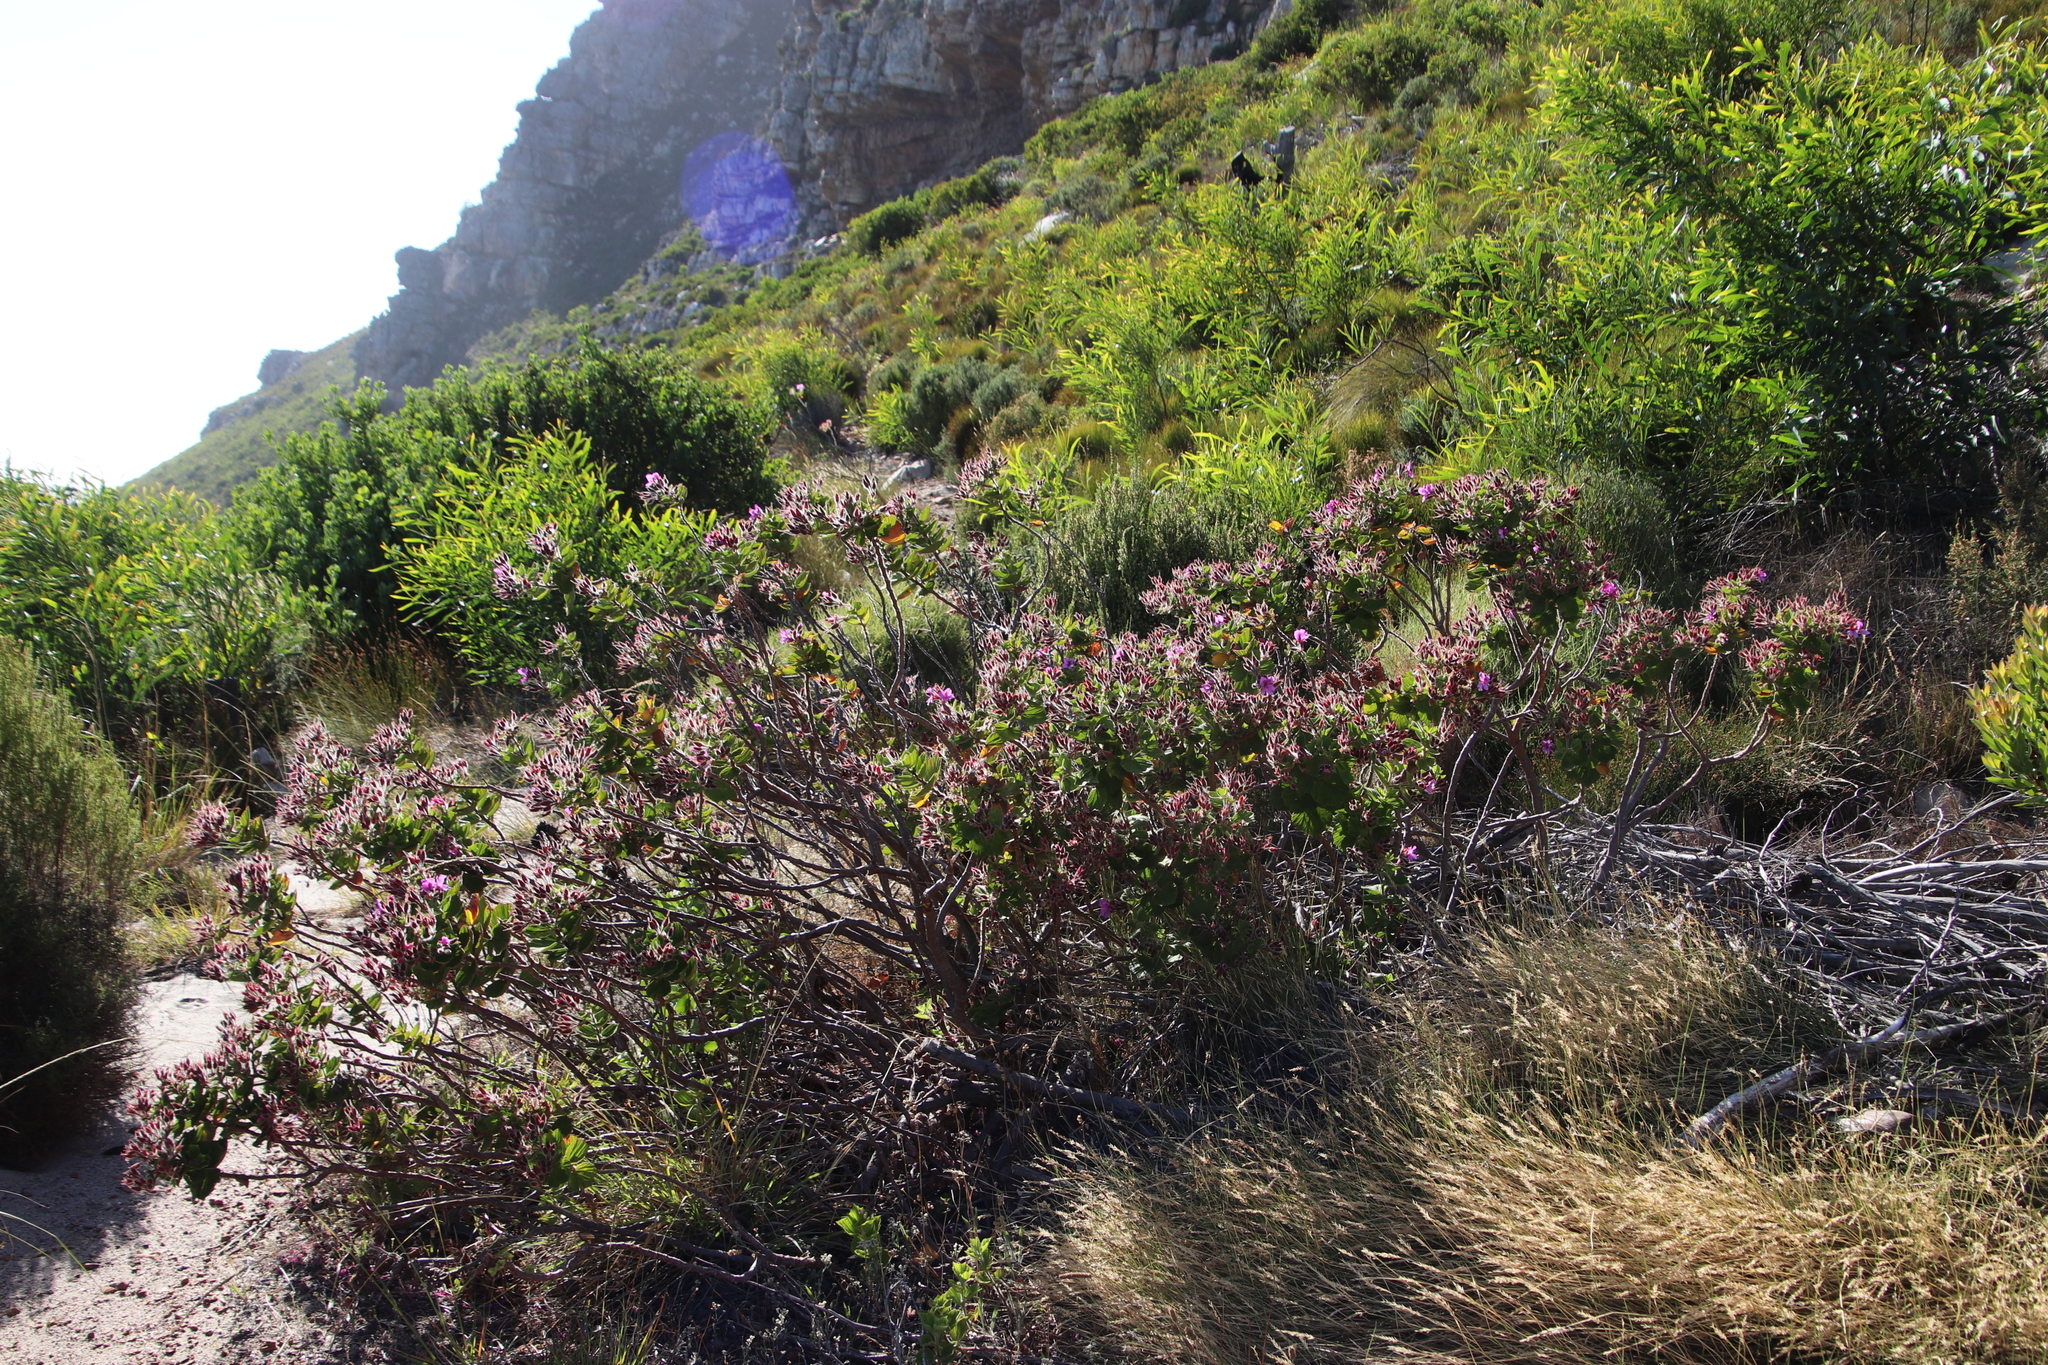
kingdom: Plantae
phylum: Tracheophyta
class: Magnoliopsida
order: Geraniales
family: Geraniaceae
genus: Pelargonium
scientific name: Pelargonium cucullatum
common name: Tree pelargonium
